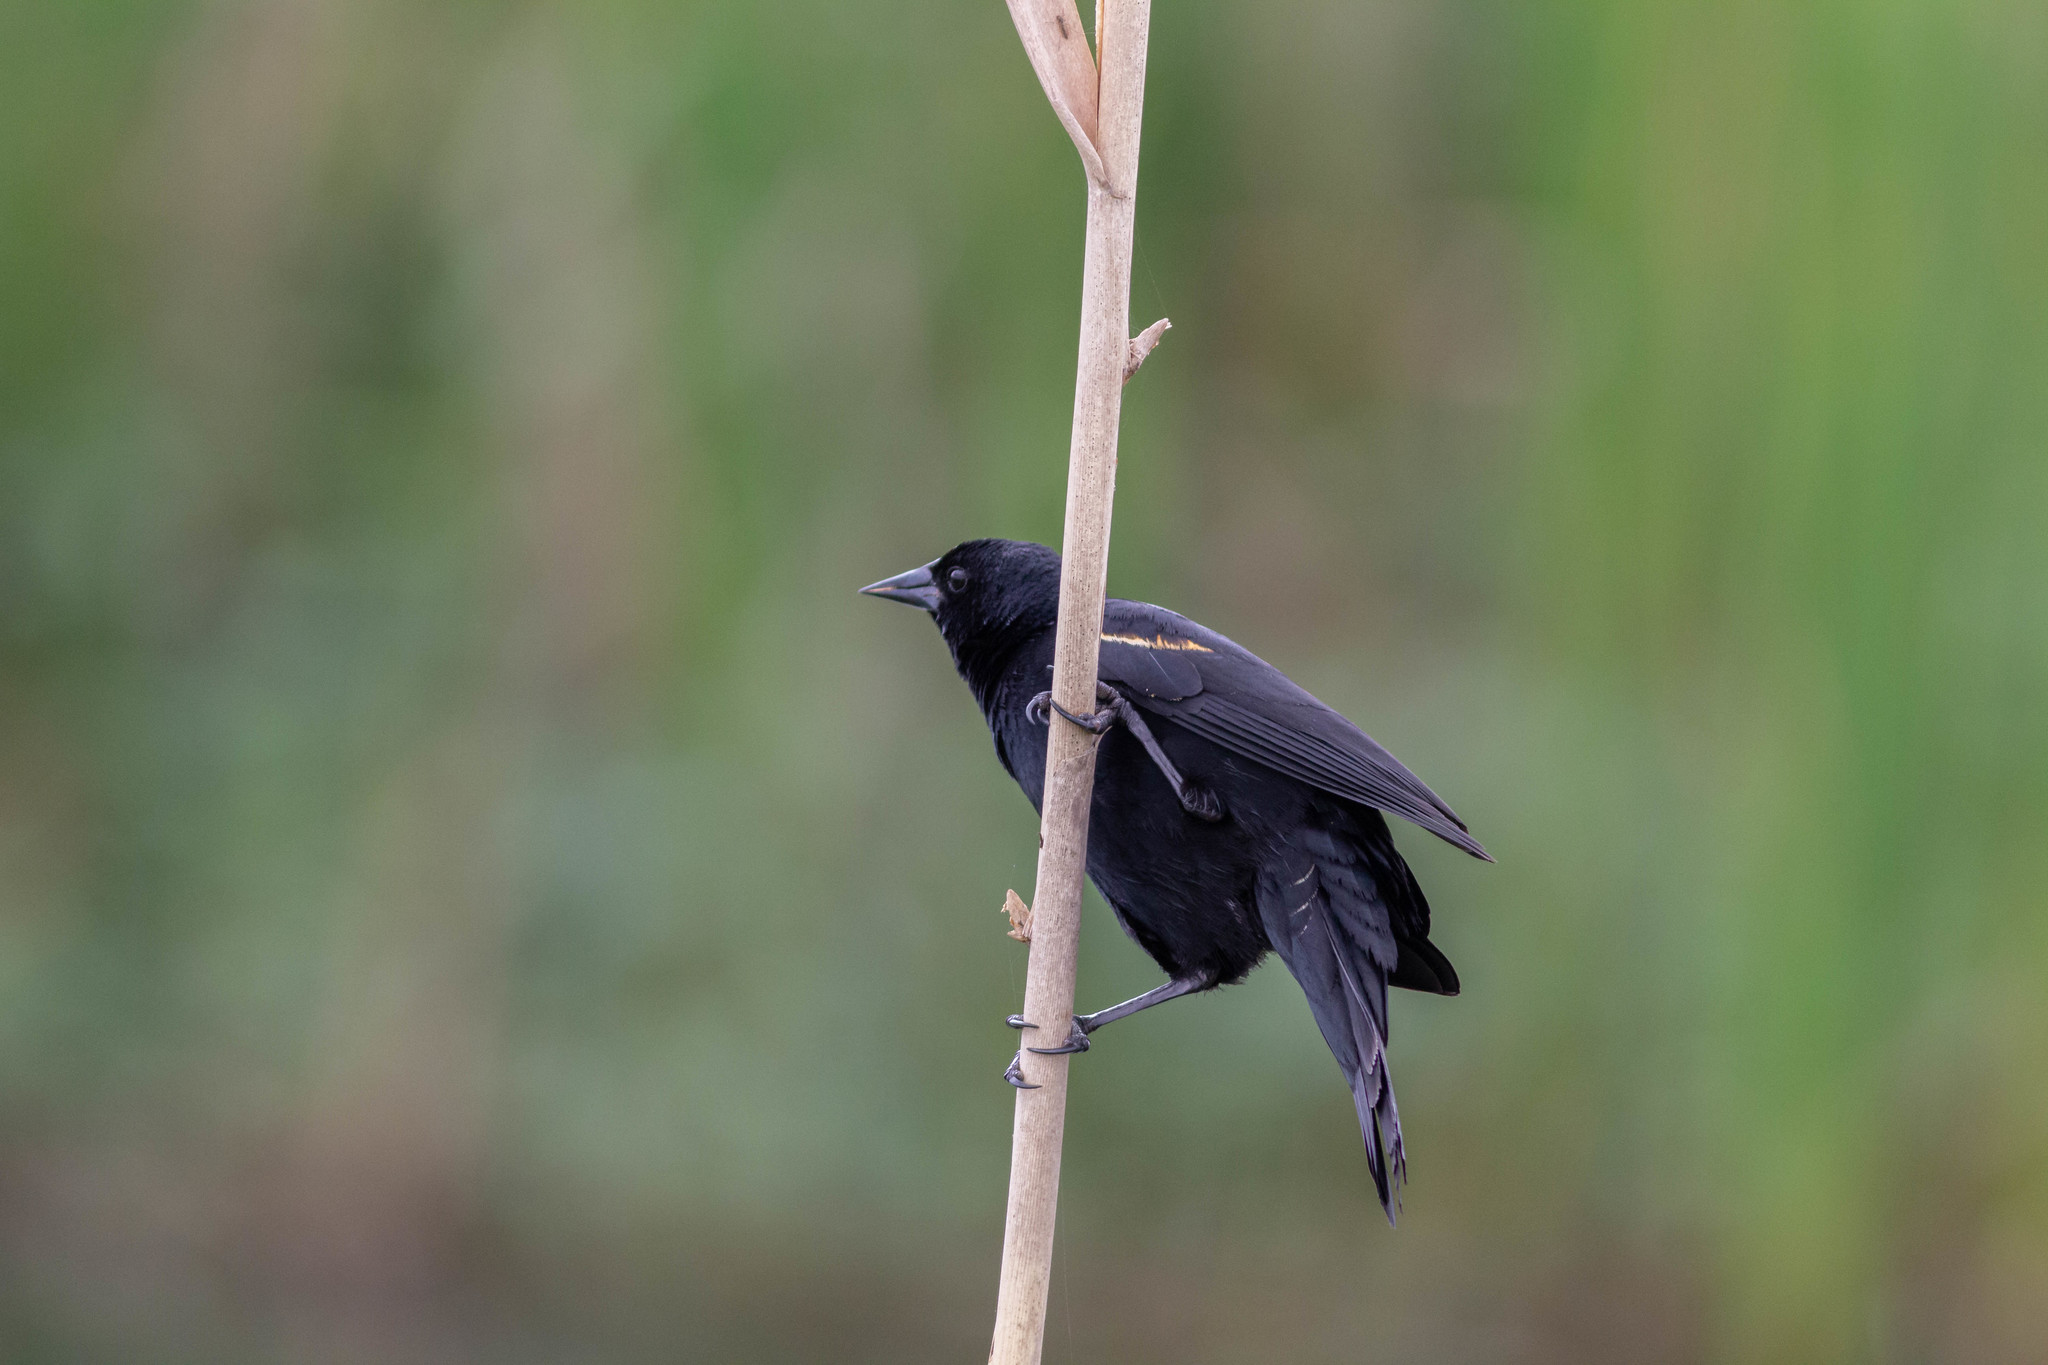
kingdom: Animalia
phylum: Chordata
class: Aves
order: Passeriformes
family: Icteridae
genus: Agelaius
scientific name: Agelaius phoeniceus
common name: Red-winged blackbird
